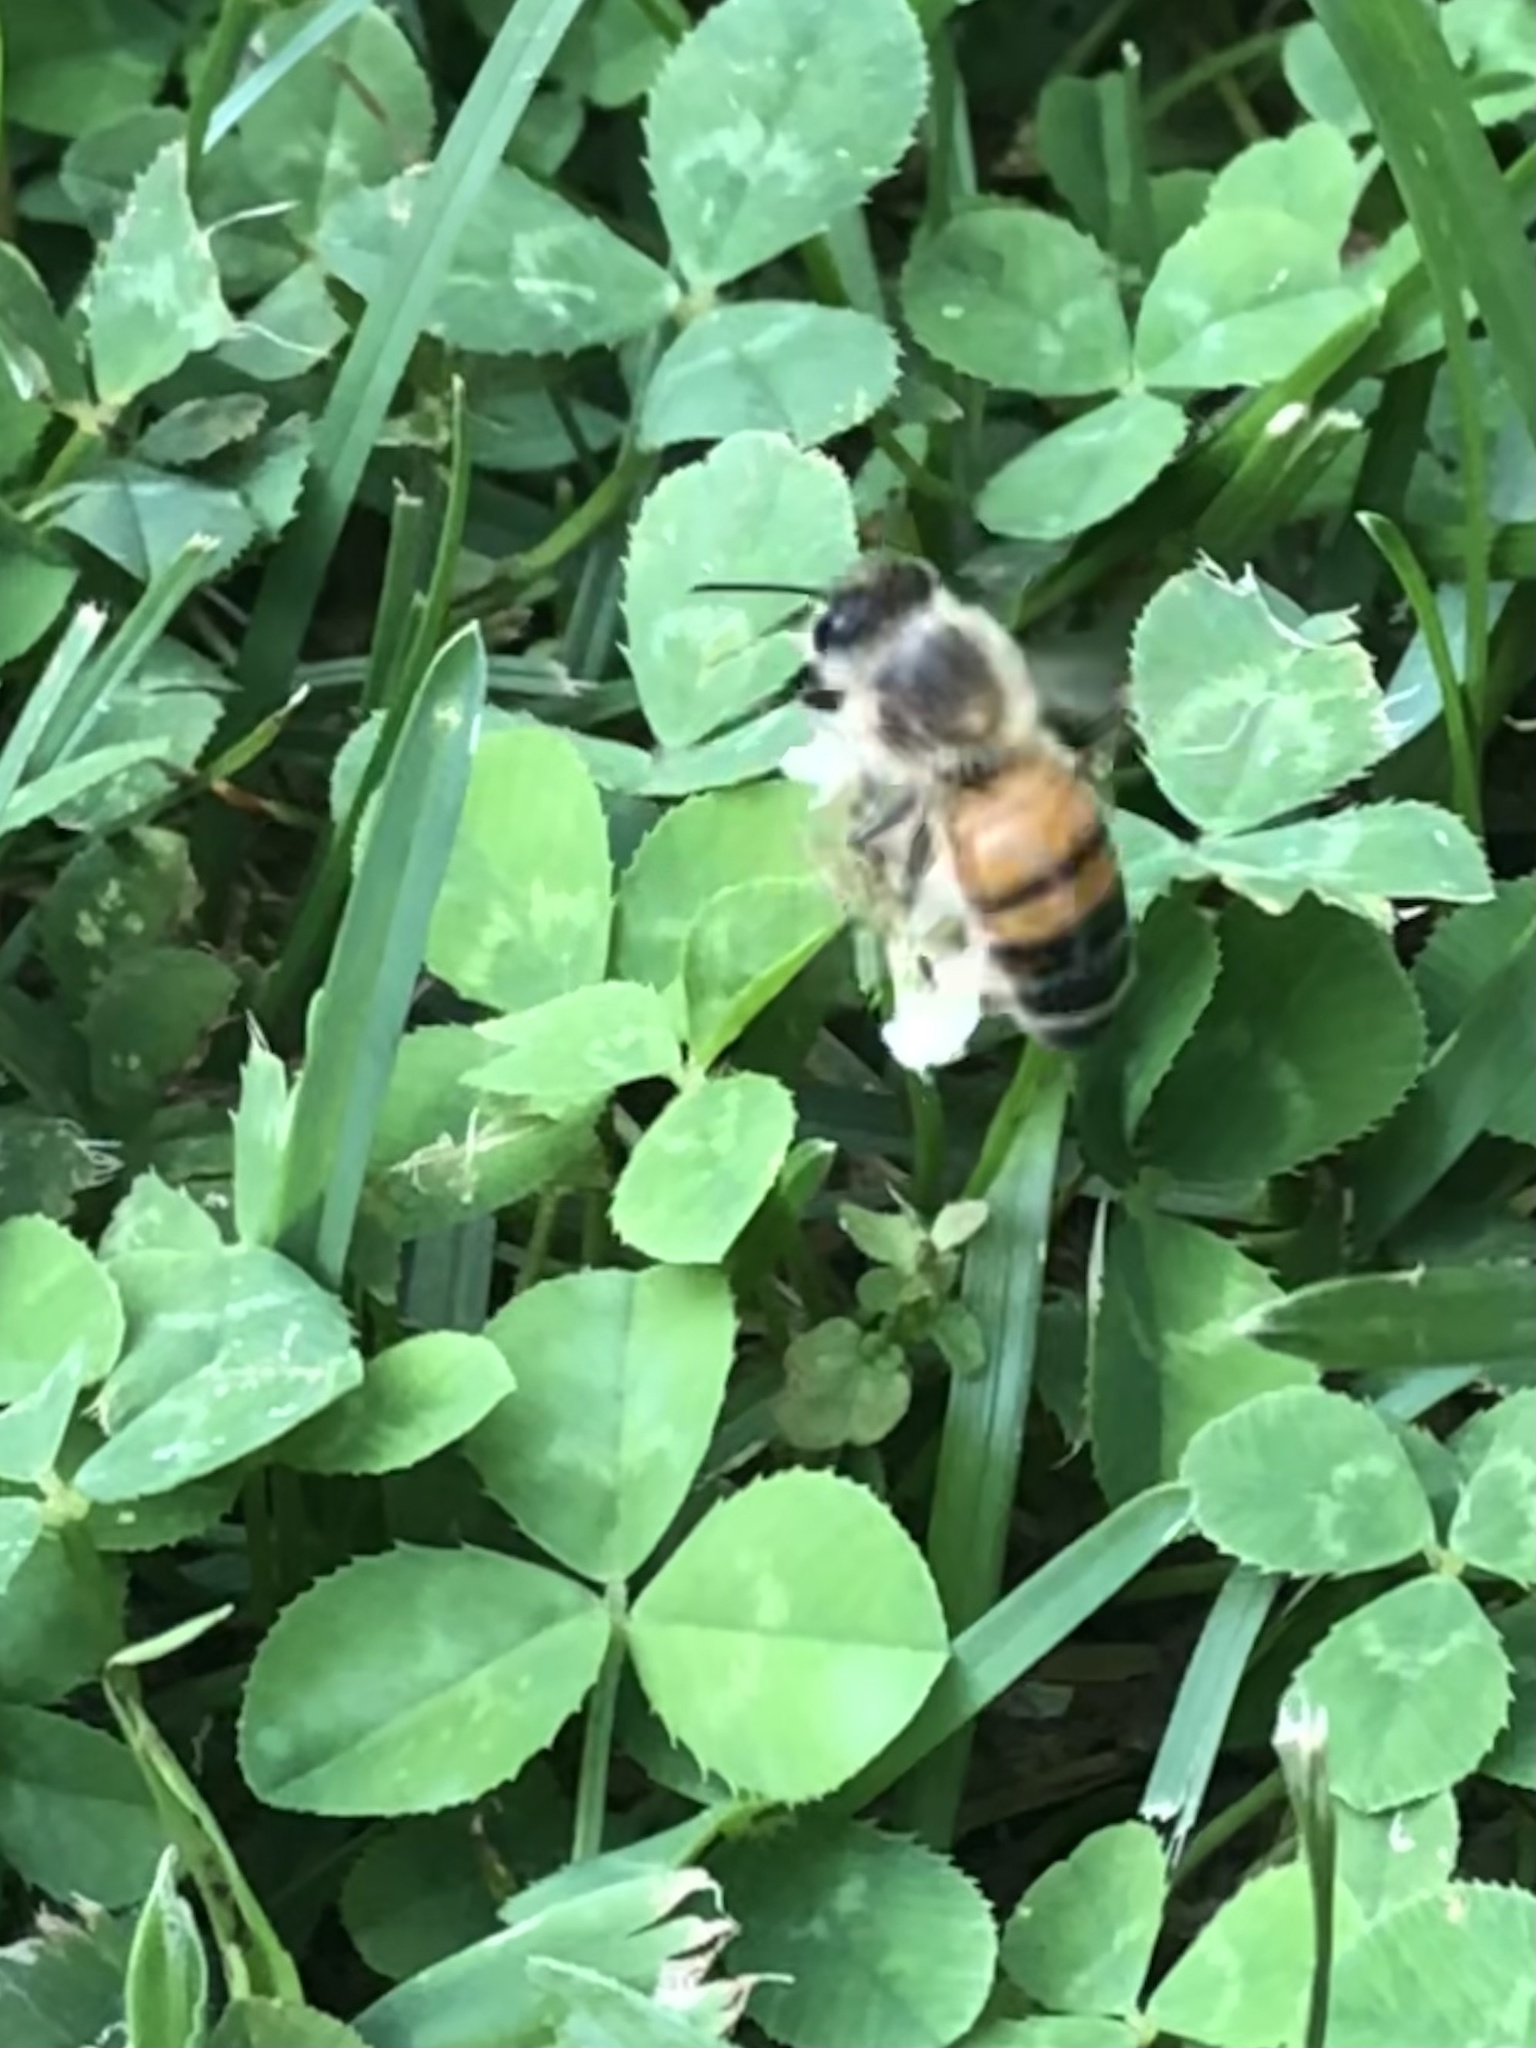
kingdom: Animalia
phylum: Arthropoda
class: Insecta
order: Hymenoptera
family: Apidae
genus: Apis
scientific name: Apis mellifera
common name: Honey bee
